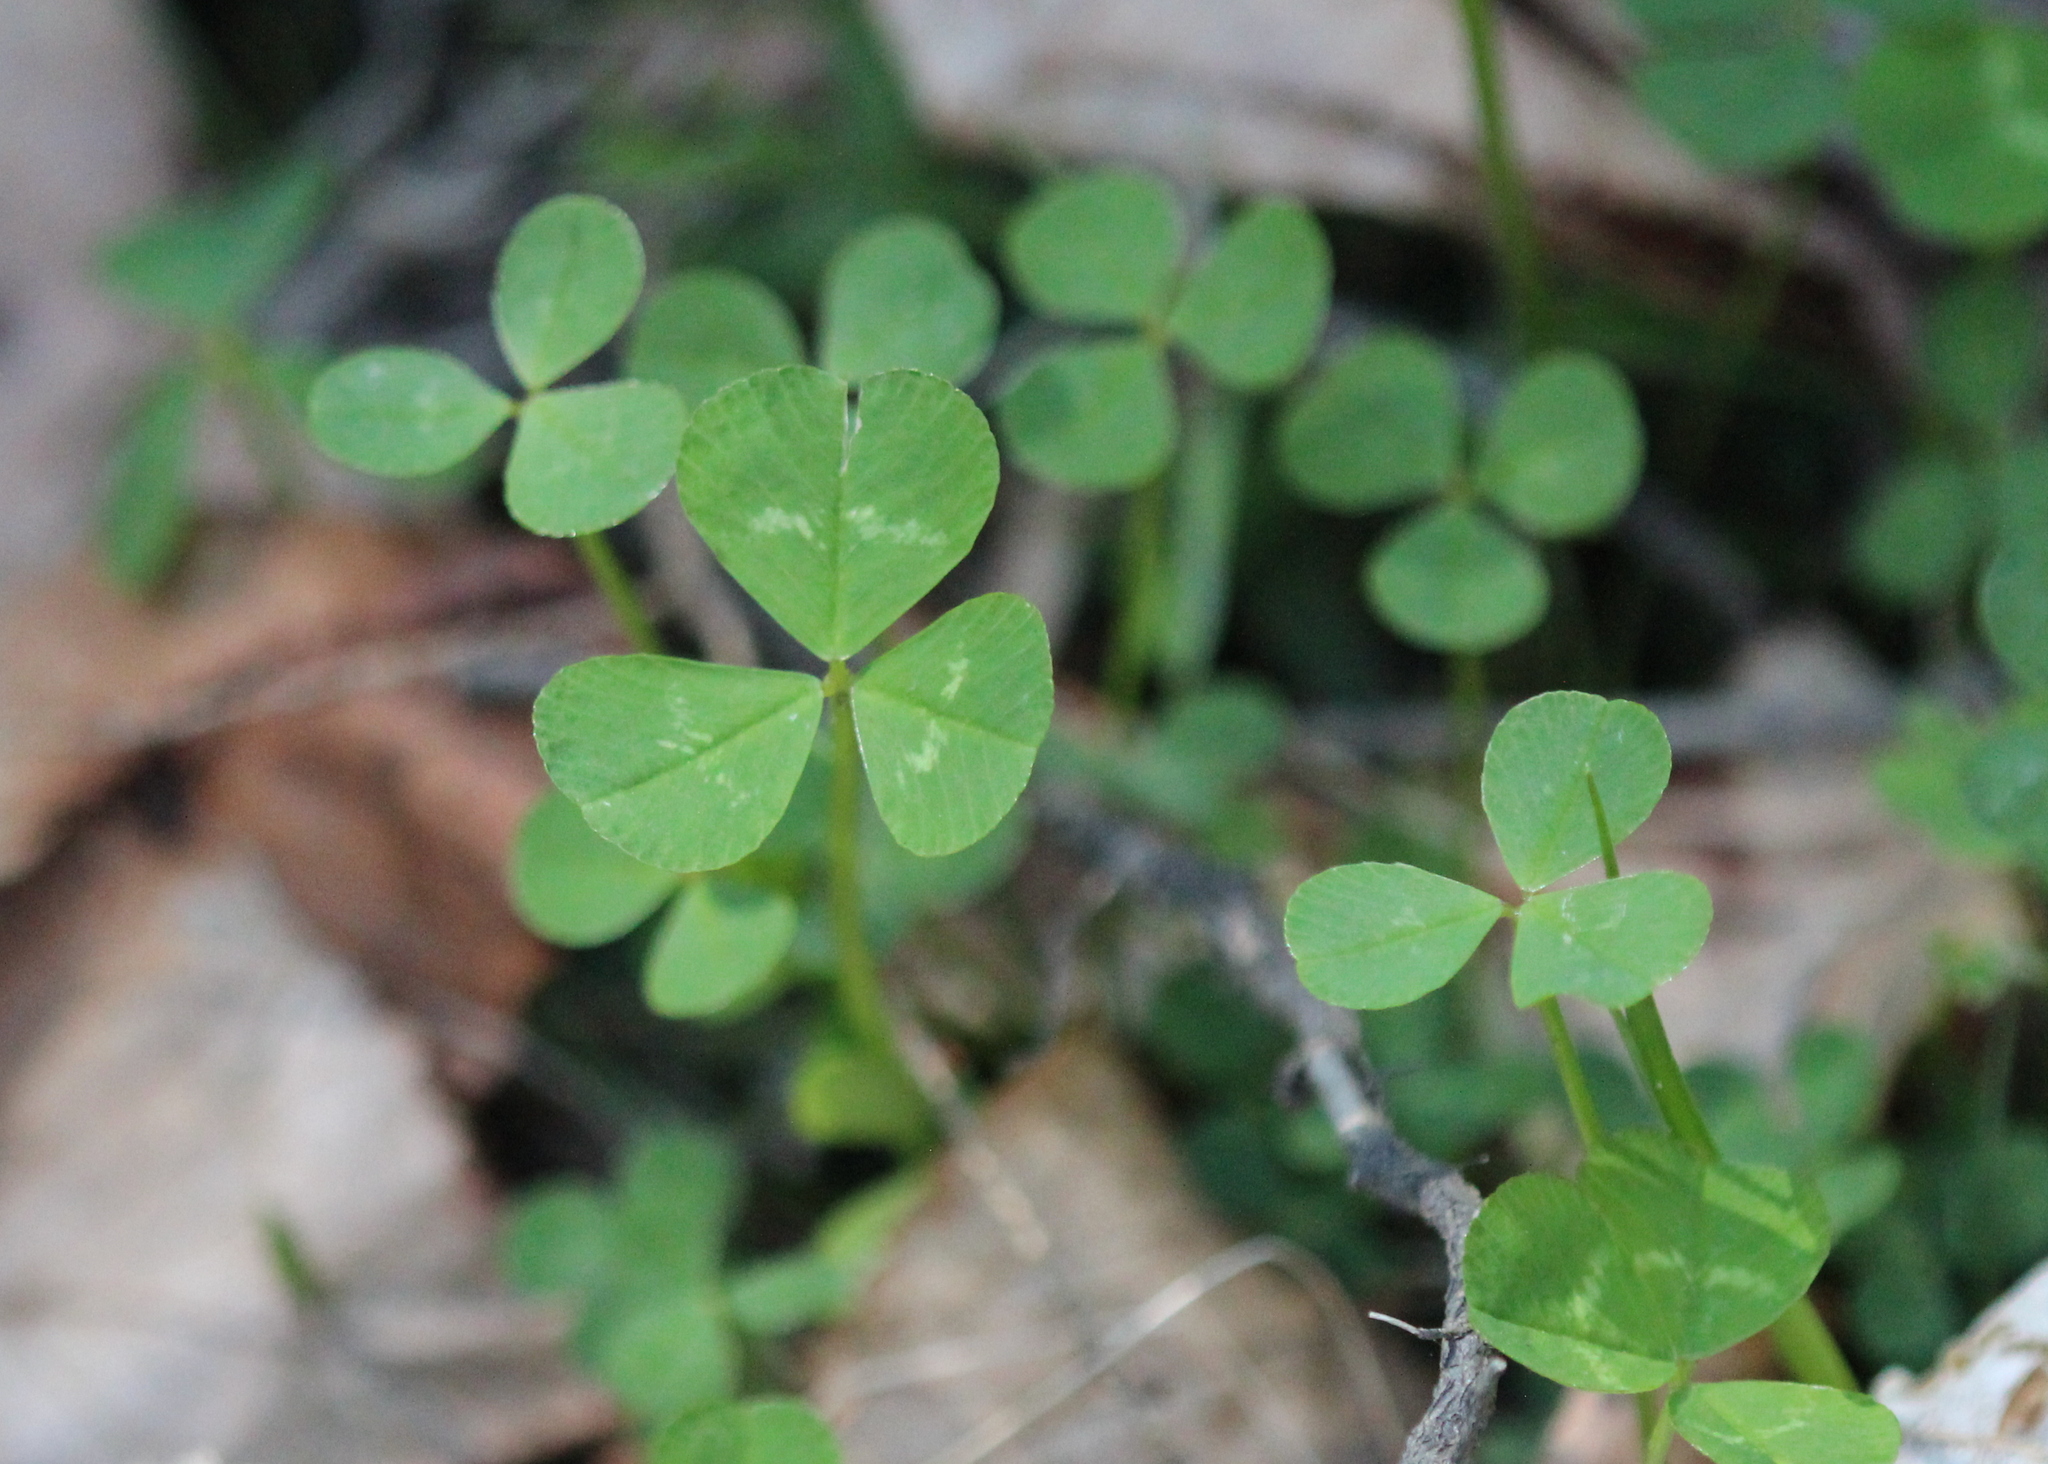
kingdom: Plantae
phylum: Tracheophyta
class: Magnoliopsida
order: Fabales
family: Fabaceae
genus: Trifolium
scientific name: Trifolium repens
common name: White clover
